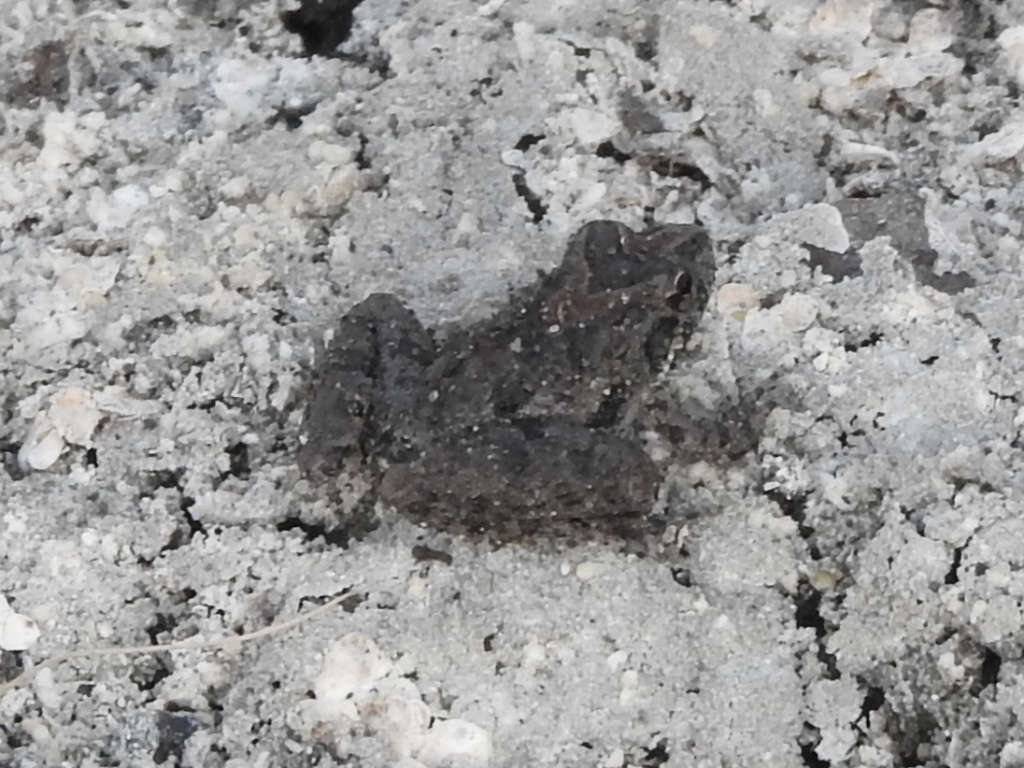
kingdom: Animalia
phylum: Chordata
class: Amphibia
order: Anura
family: Hylidae
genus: Acris
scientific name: Acris blanchardi
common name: Blanchard's cricket frog
